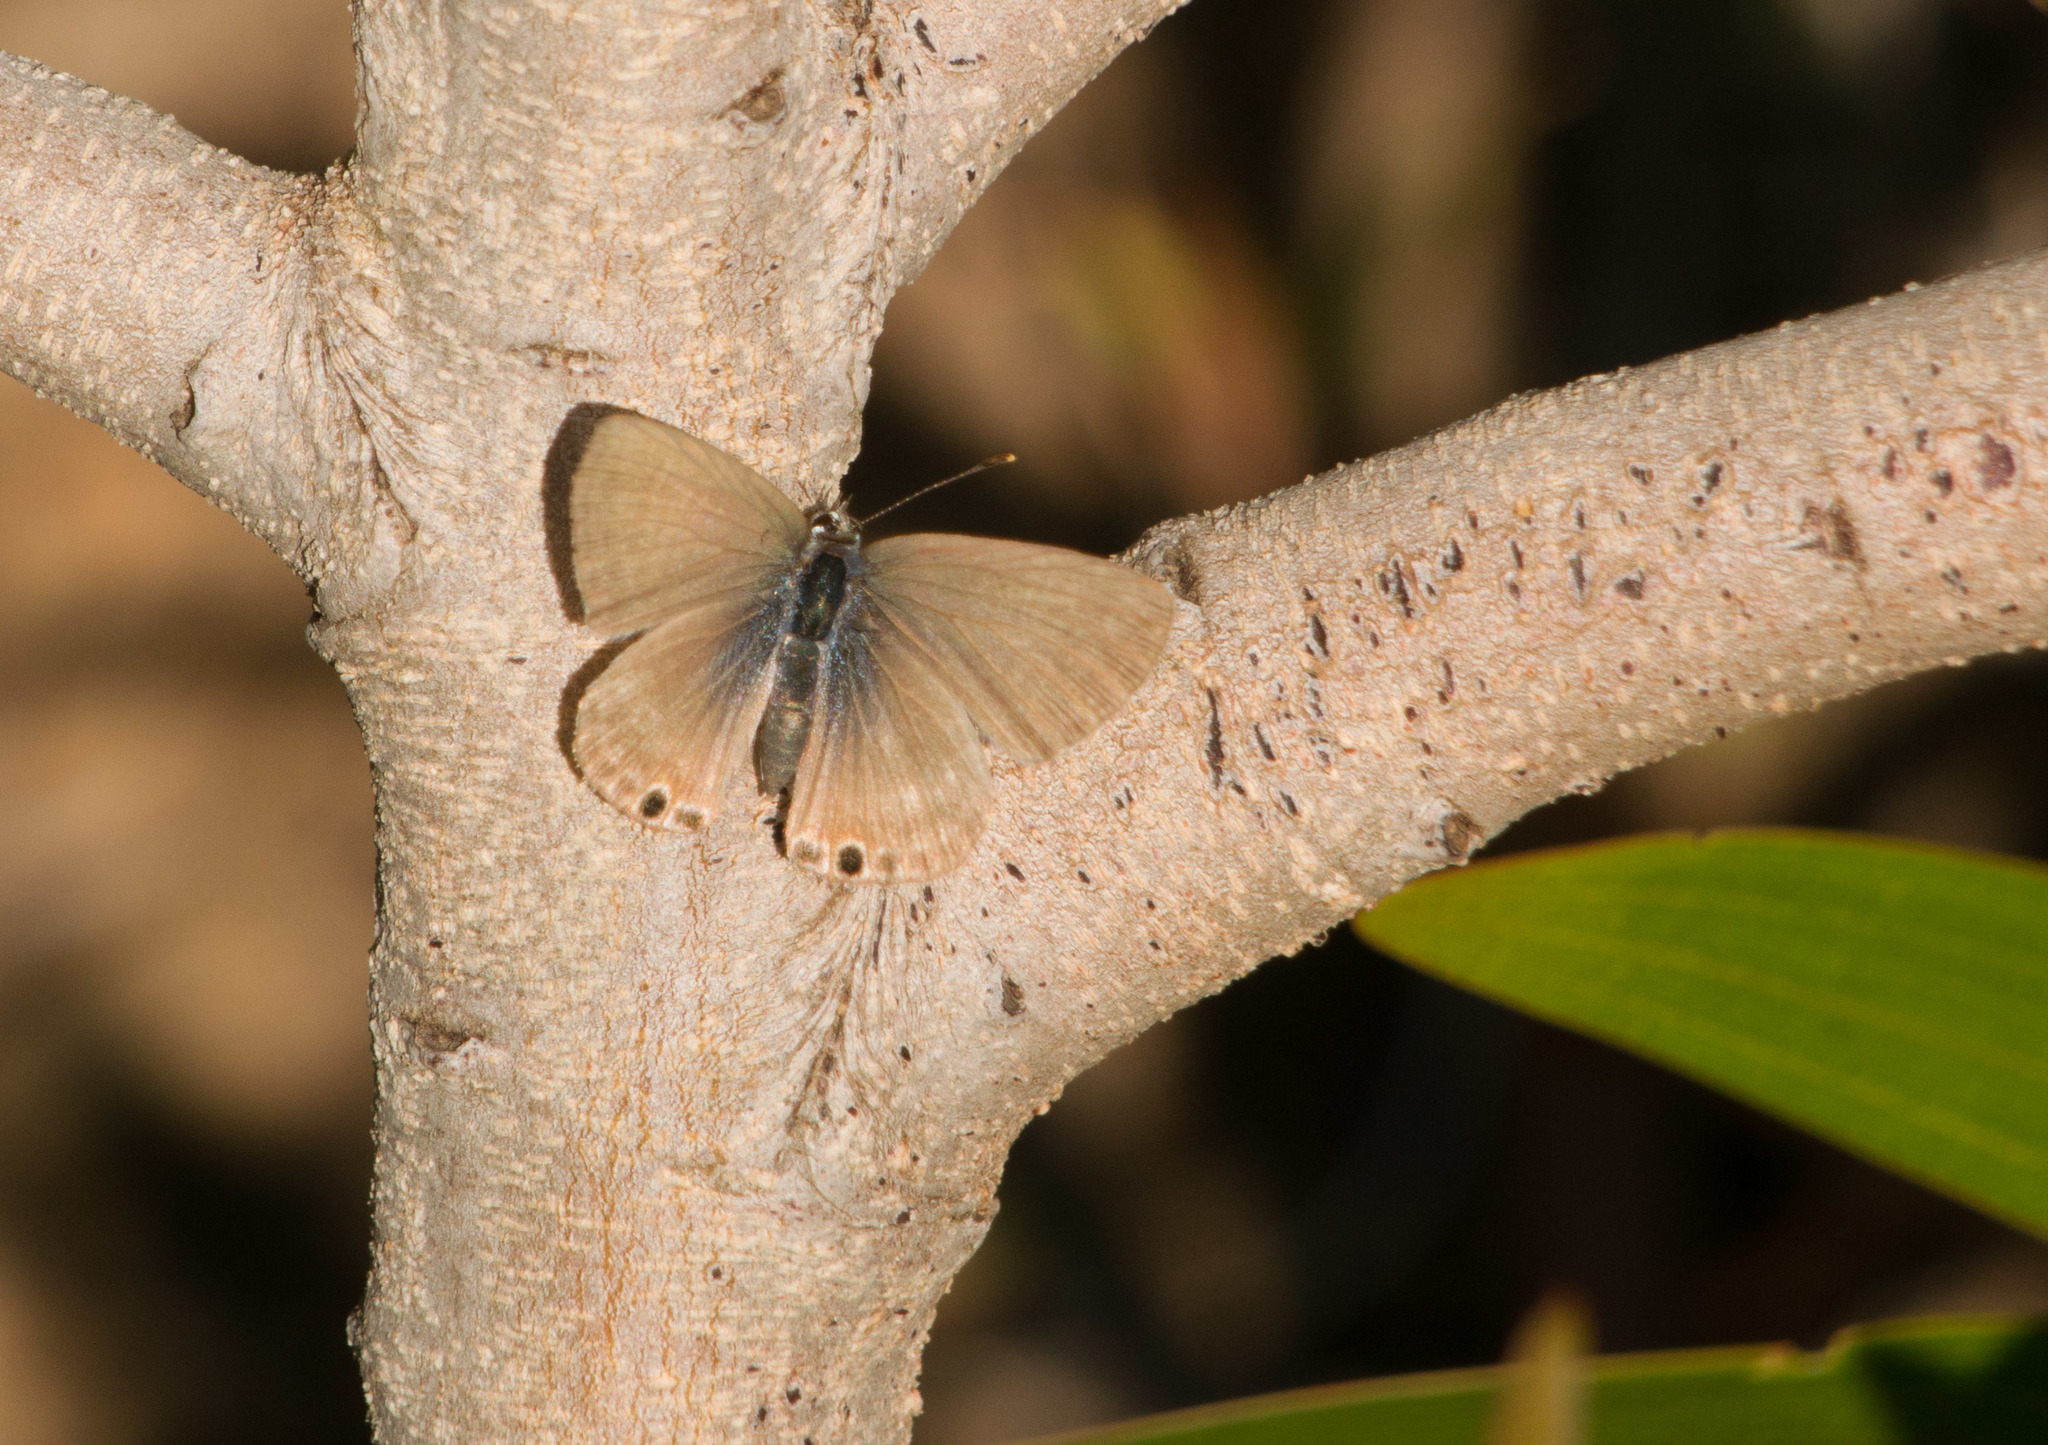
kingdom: Animalia
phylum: Arthropoda
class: Insecta
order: Lepidoptera
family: Lycaenidae
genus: Lampides
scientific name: Lampides boeticus
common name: Long-tailed blue
